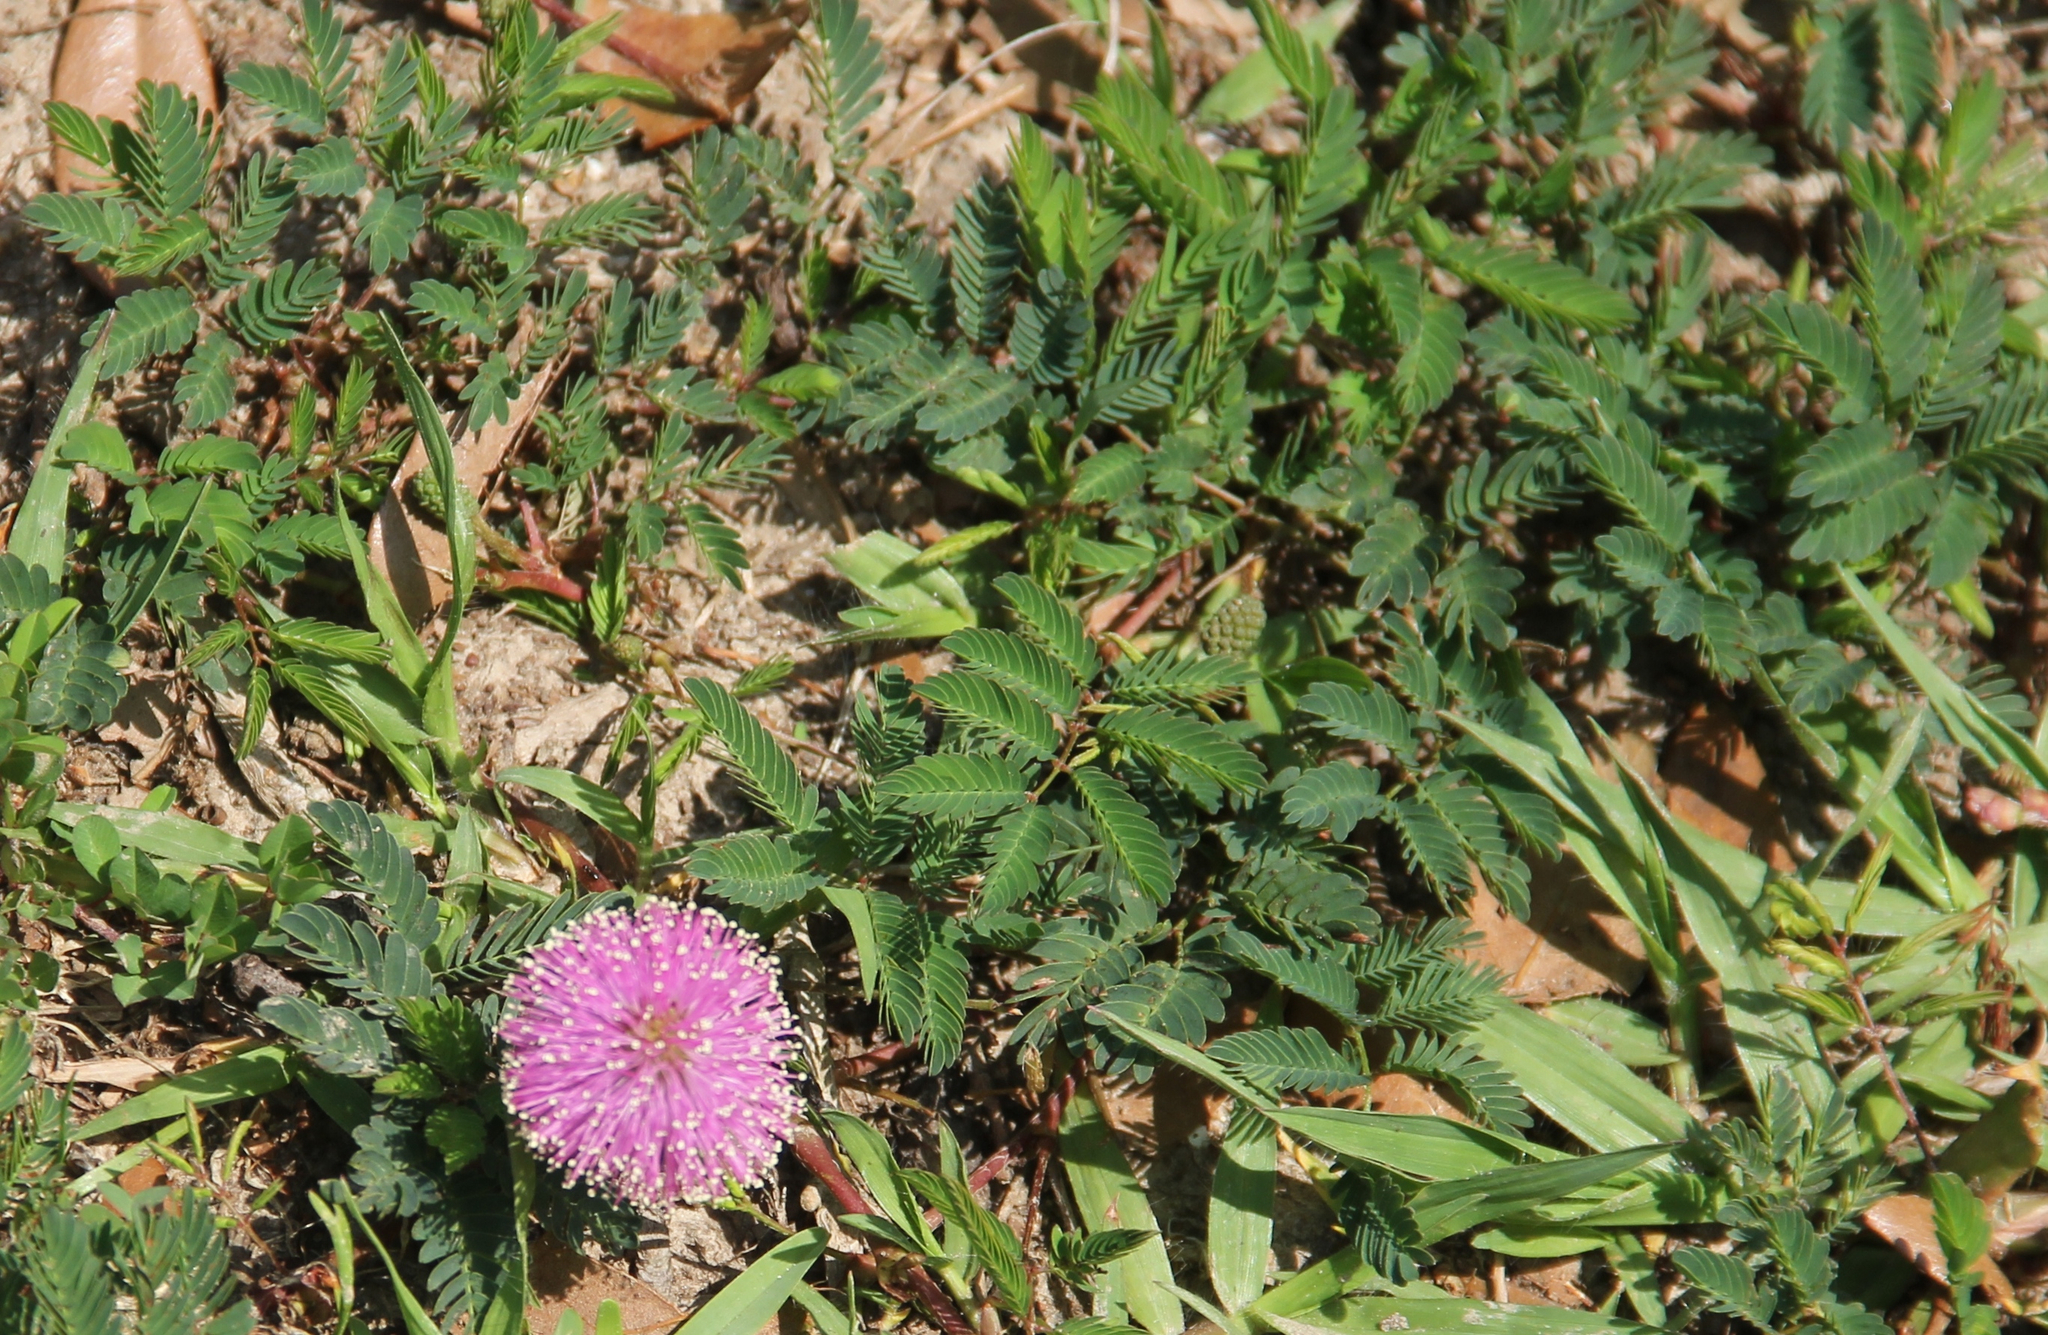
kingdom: Plantae
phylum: Tracheophyta
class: Magnoliopsida
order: Fabales
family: Fabaceae
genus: Mimosa
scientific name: Mimosa strigillosa
